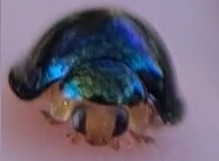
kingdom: Animalia
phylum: Arthropoda
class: Insecta
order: Coleoptera
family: Coccinellidae
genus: Halmus
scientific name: Halmus chalybeus
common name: Steel blue ladybird beetle
